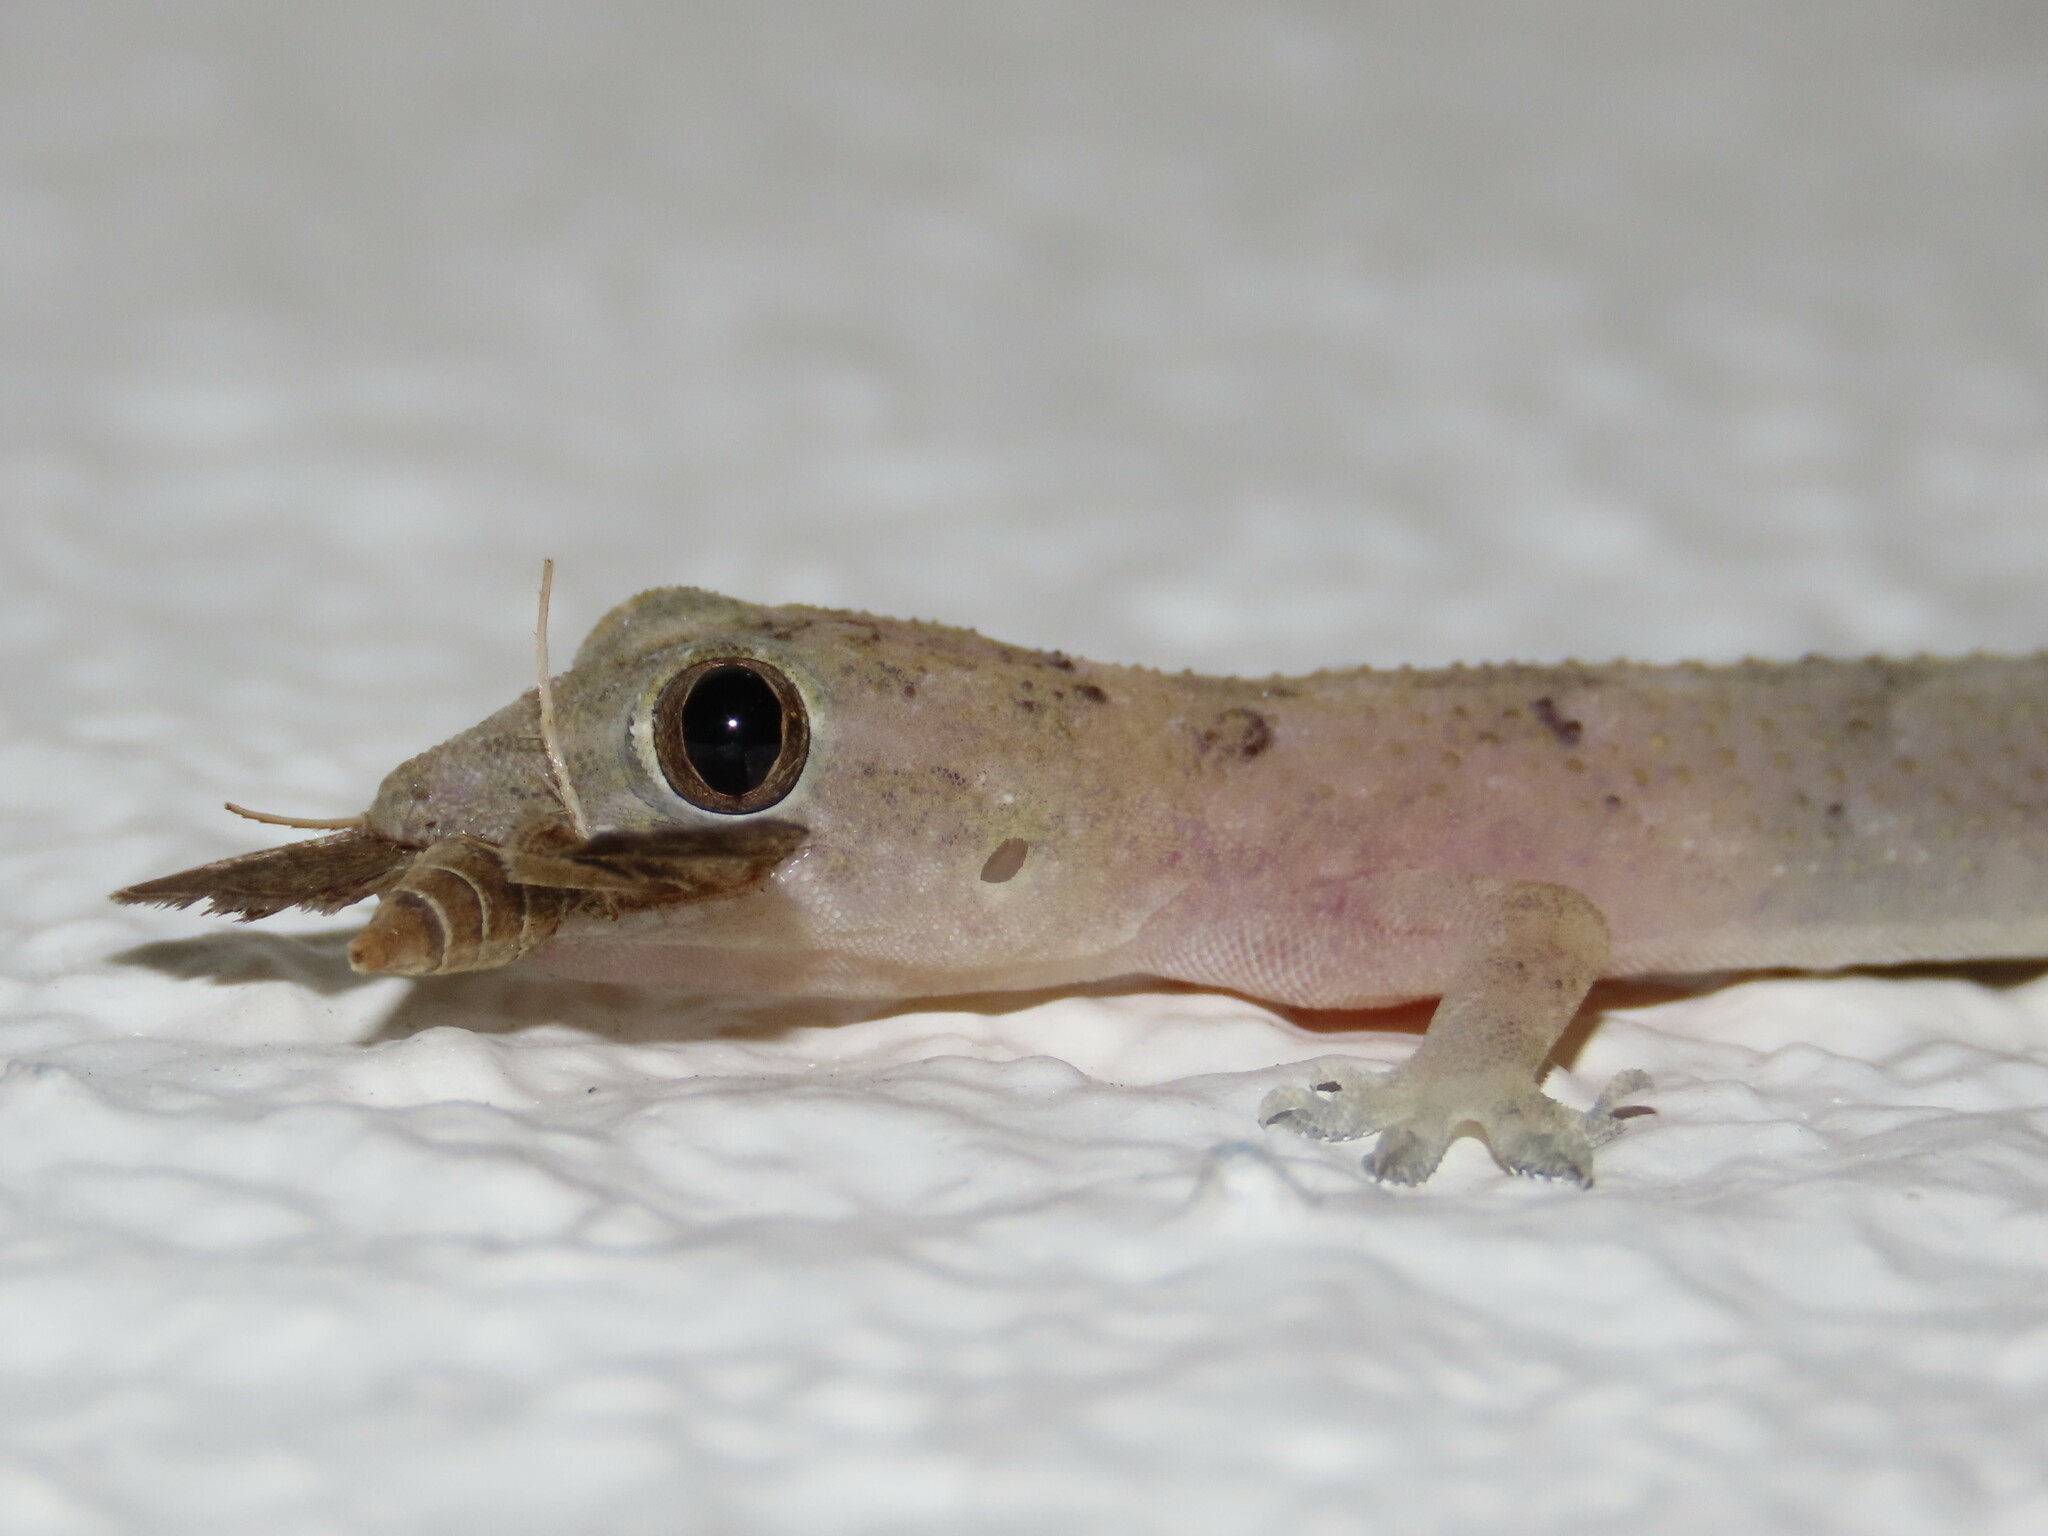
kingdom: Animalia
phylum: Chordata
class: Squamata
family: Gekkonidae
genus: Hemidactylus
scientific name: Hemidactylus mabouia
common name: House gecko
